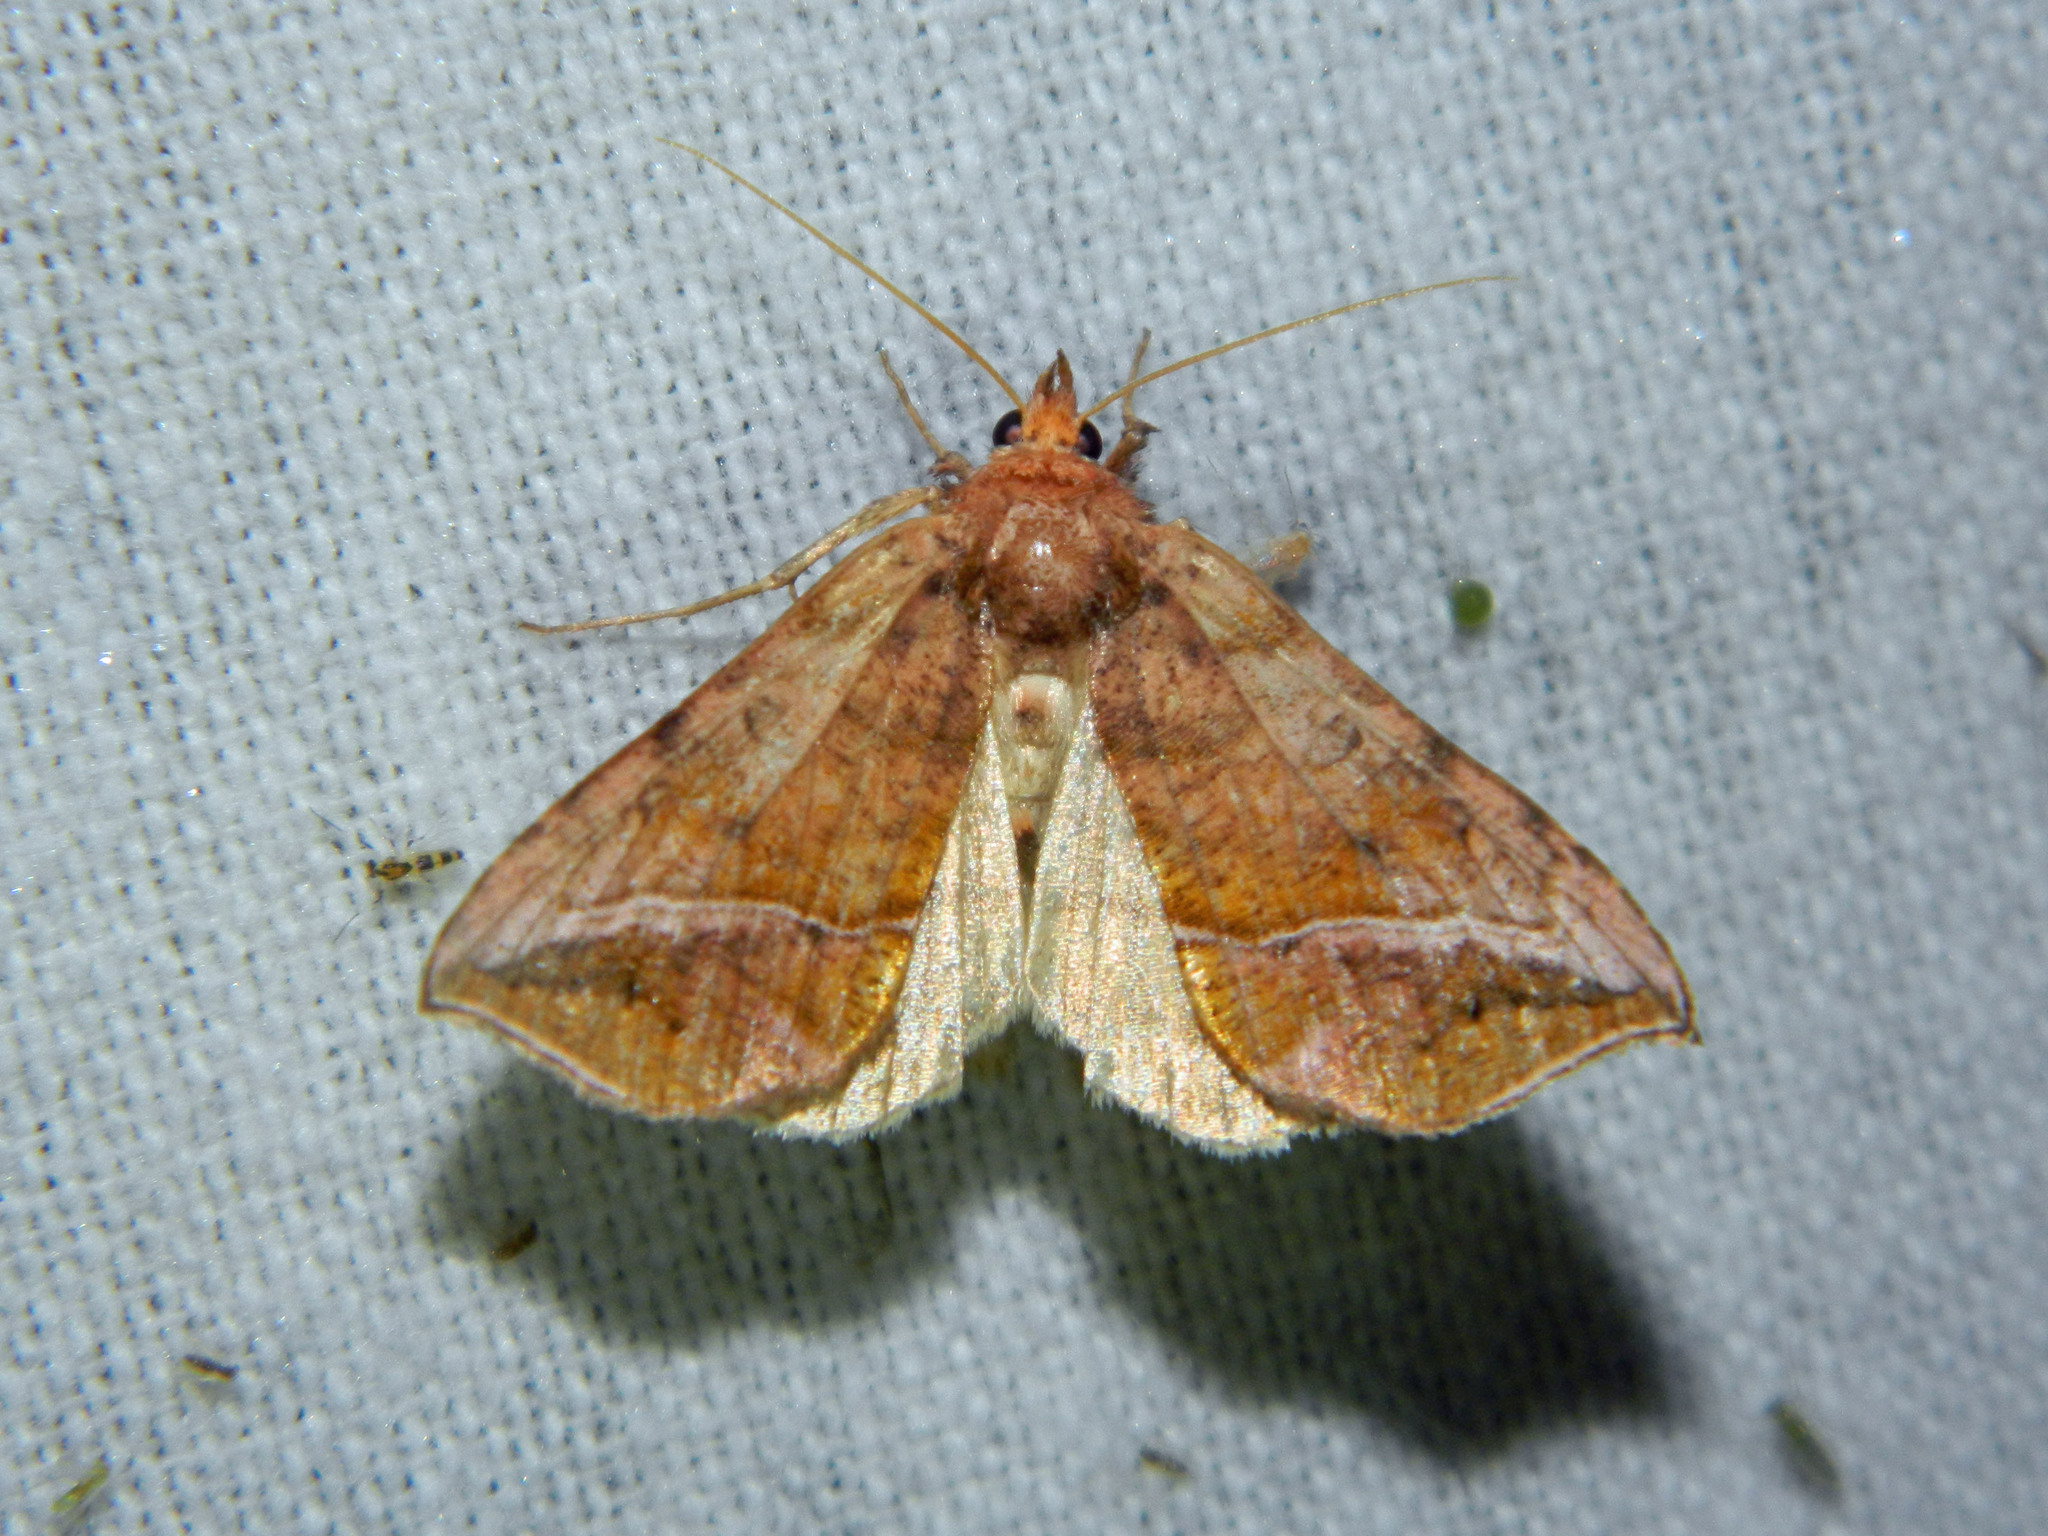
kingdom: Animalia
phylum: Arthropoda
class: Insecta
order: Lepidoptera
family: Noctuidae
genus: Pseudeva
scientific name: Pseudeva purpurigera
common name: Straight-lined looper moth
